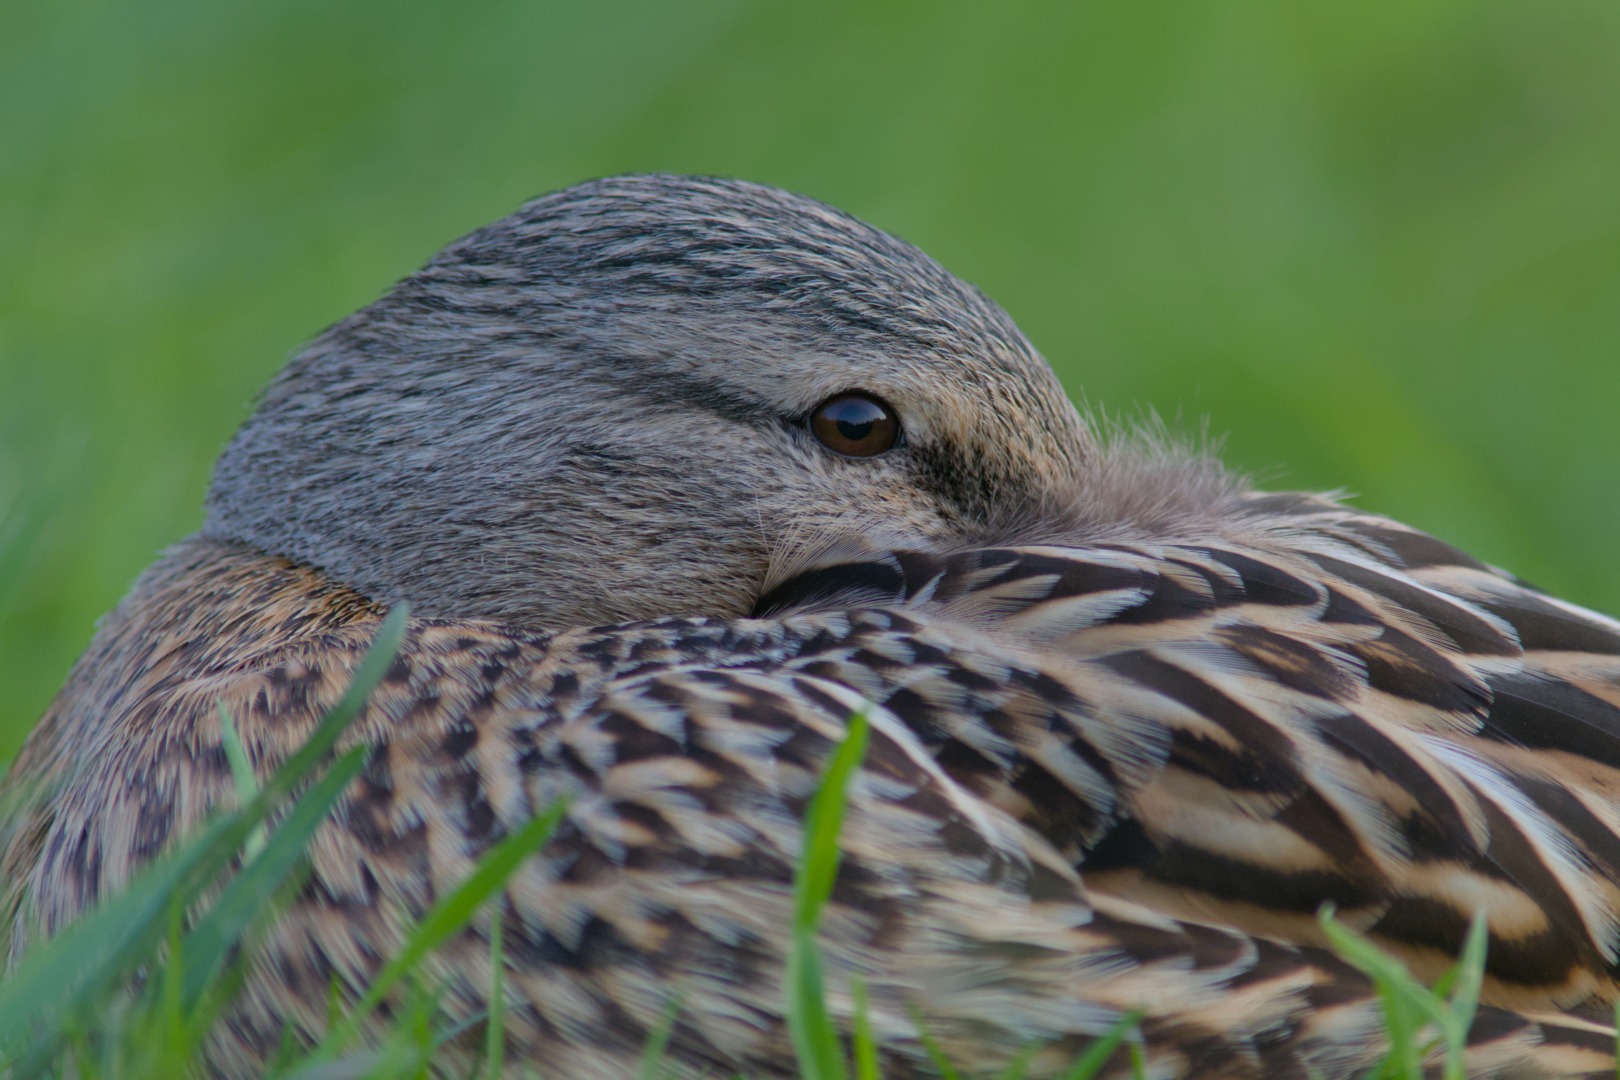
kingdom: Animalia
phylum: Chordata
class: Aves
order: Anseriformes
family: Anatidae
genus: Anas
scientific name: Anas platyrhynchos
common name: Mallard
